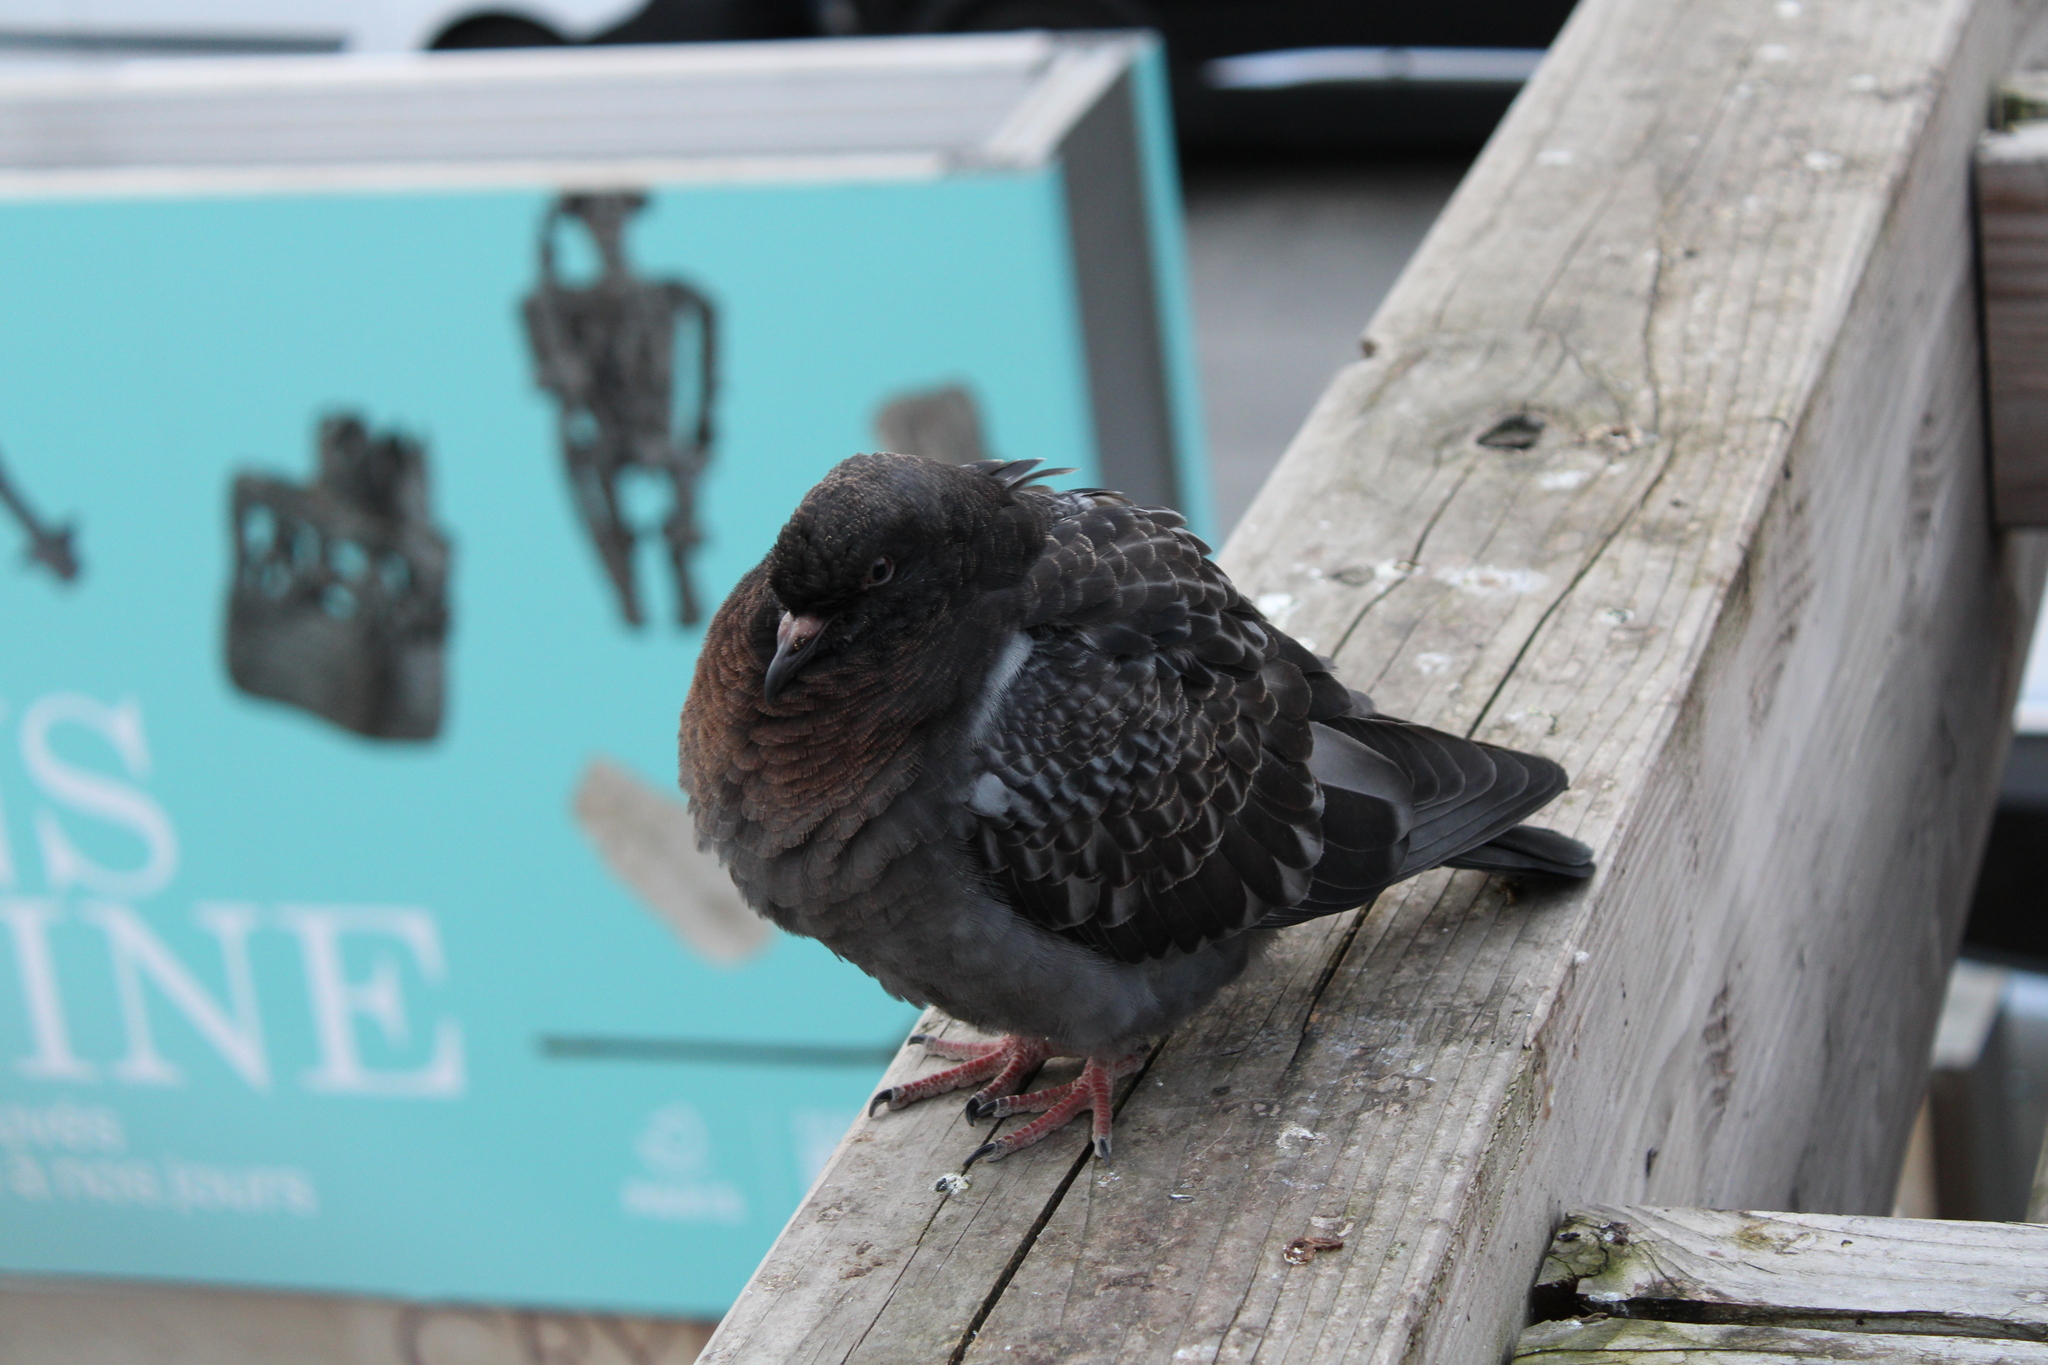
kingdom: Animalia
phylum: Chordata
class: Aves
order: Columbiformes
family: Columbidae
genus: Columba
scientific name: Columba livia
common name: Rock pigeon
